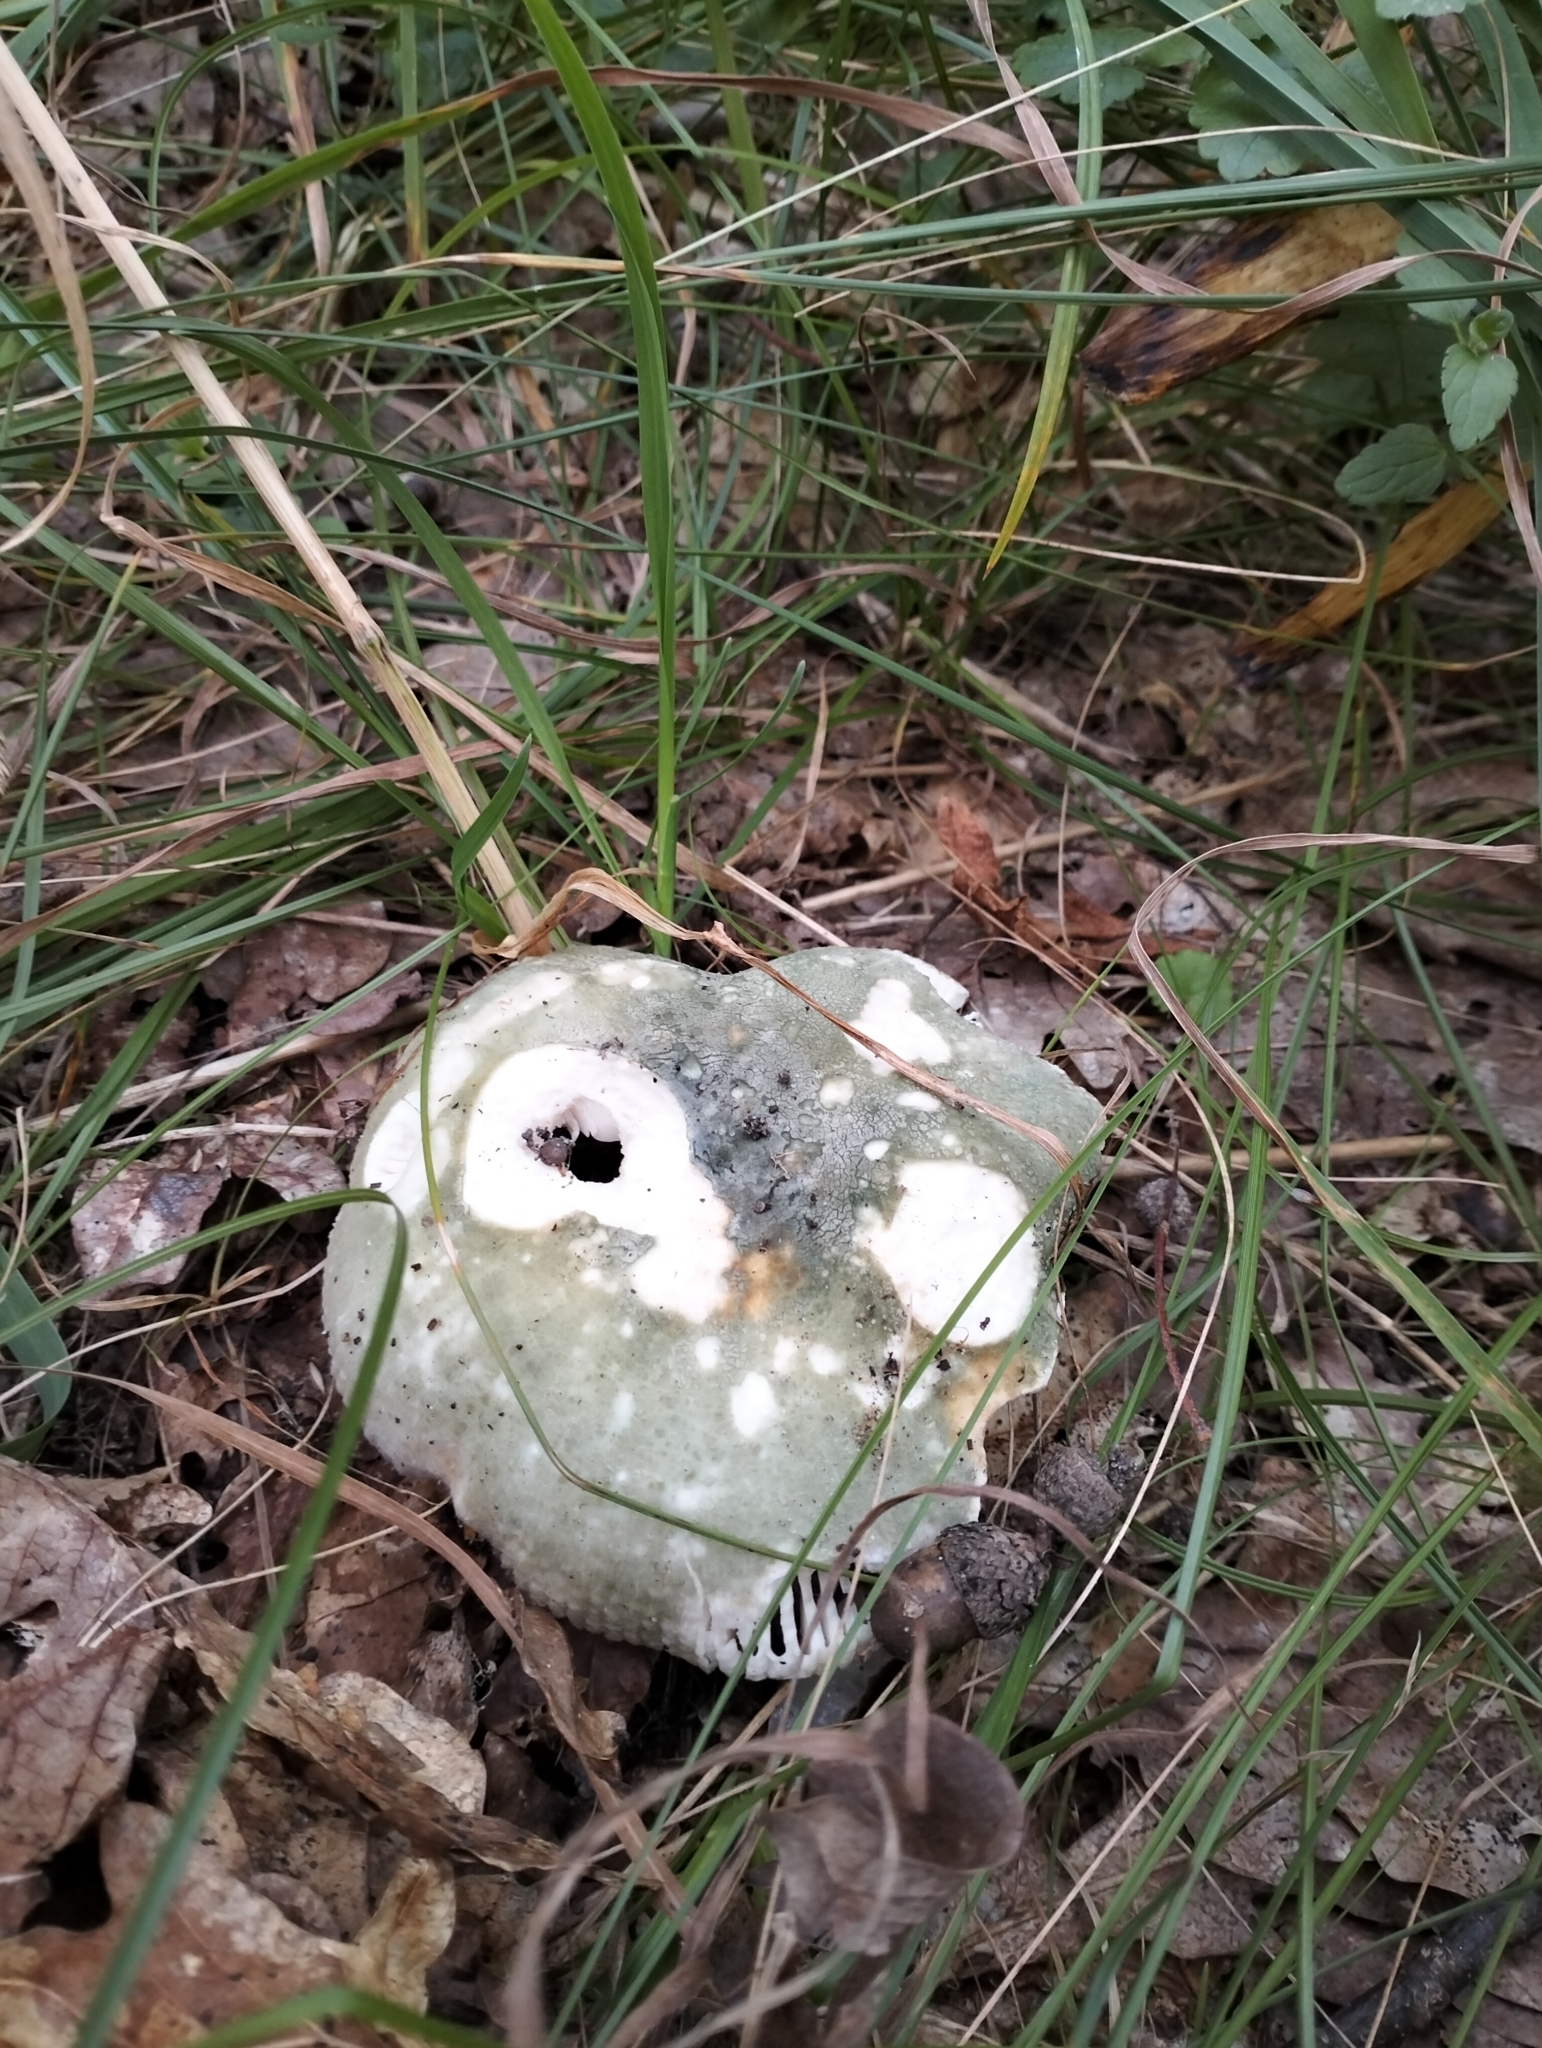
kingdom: Fungi
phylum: Basidiomycota
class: Agaricomycetes
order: Russulales
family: Russulaceae
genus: Russula
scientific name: Russula virescens
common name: Greencracked brittlegill
